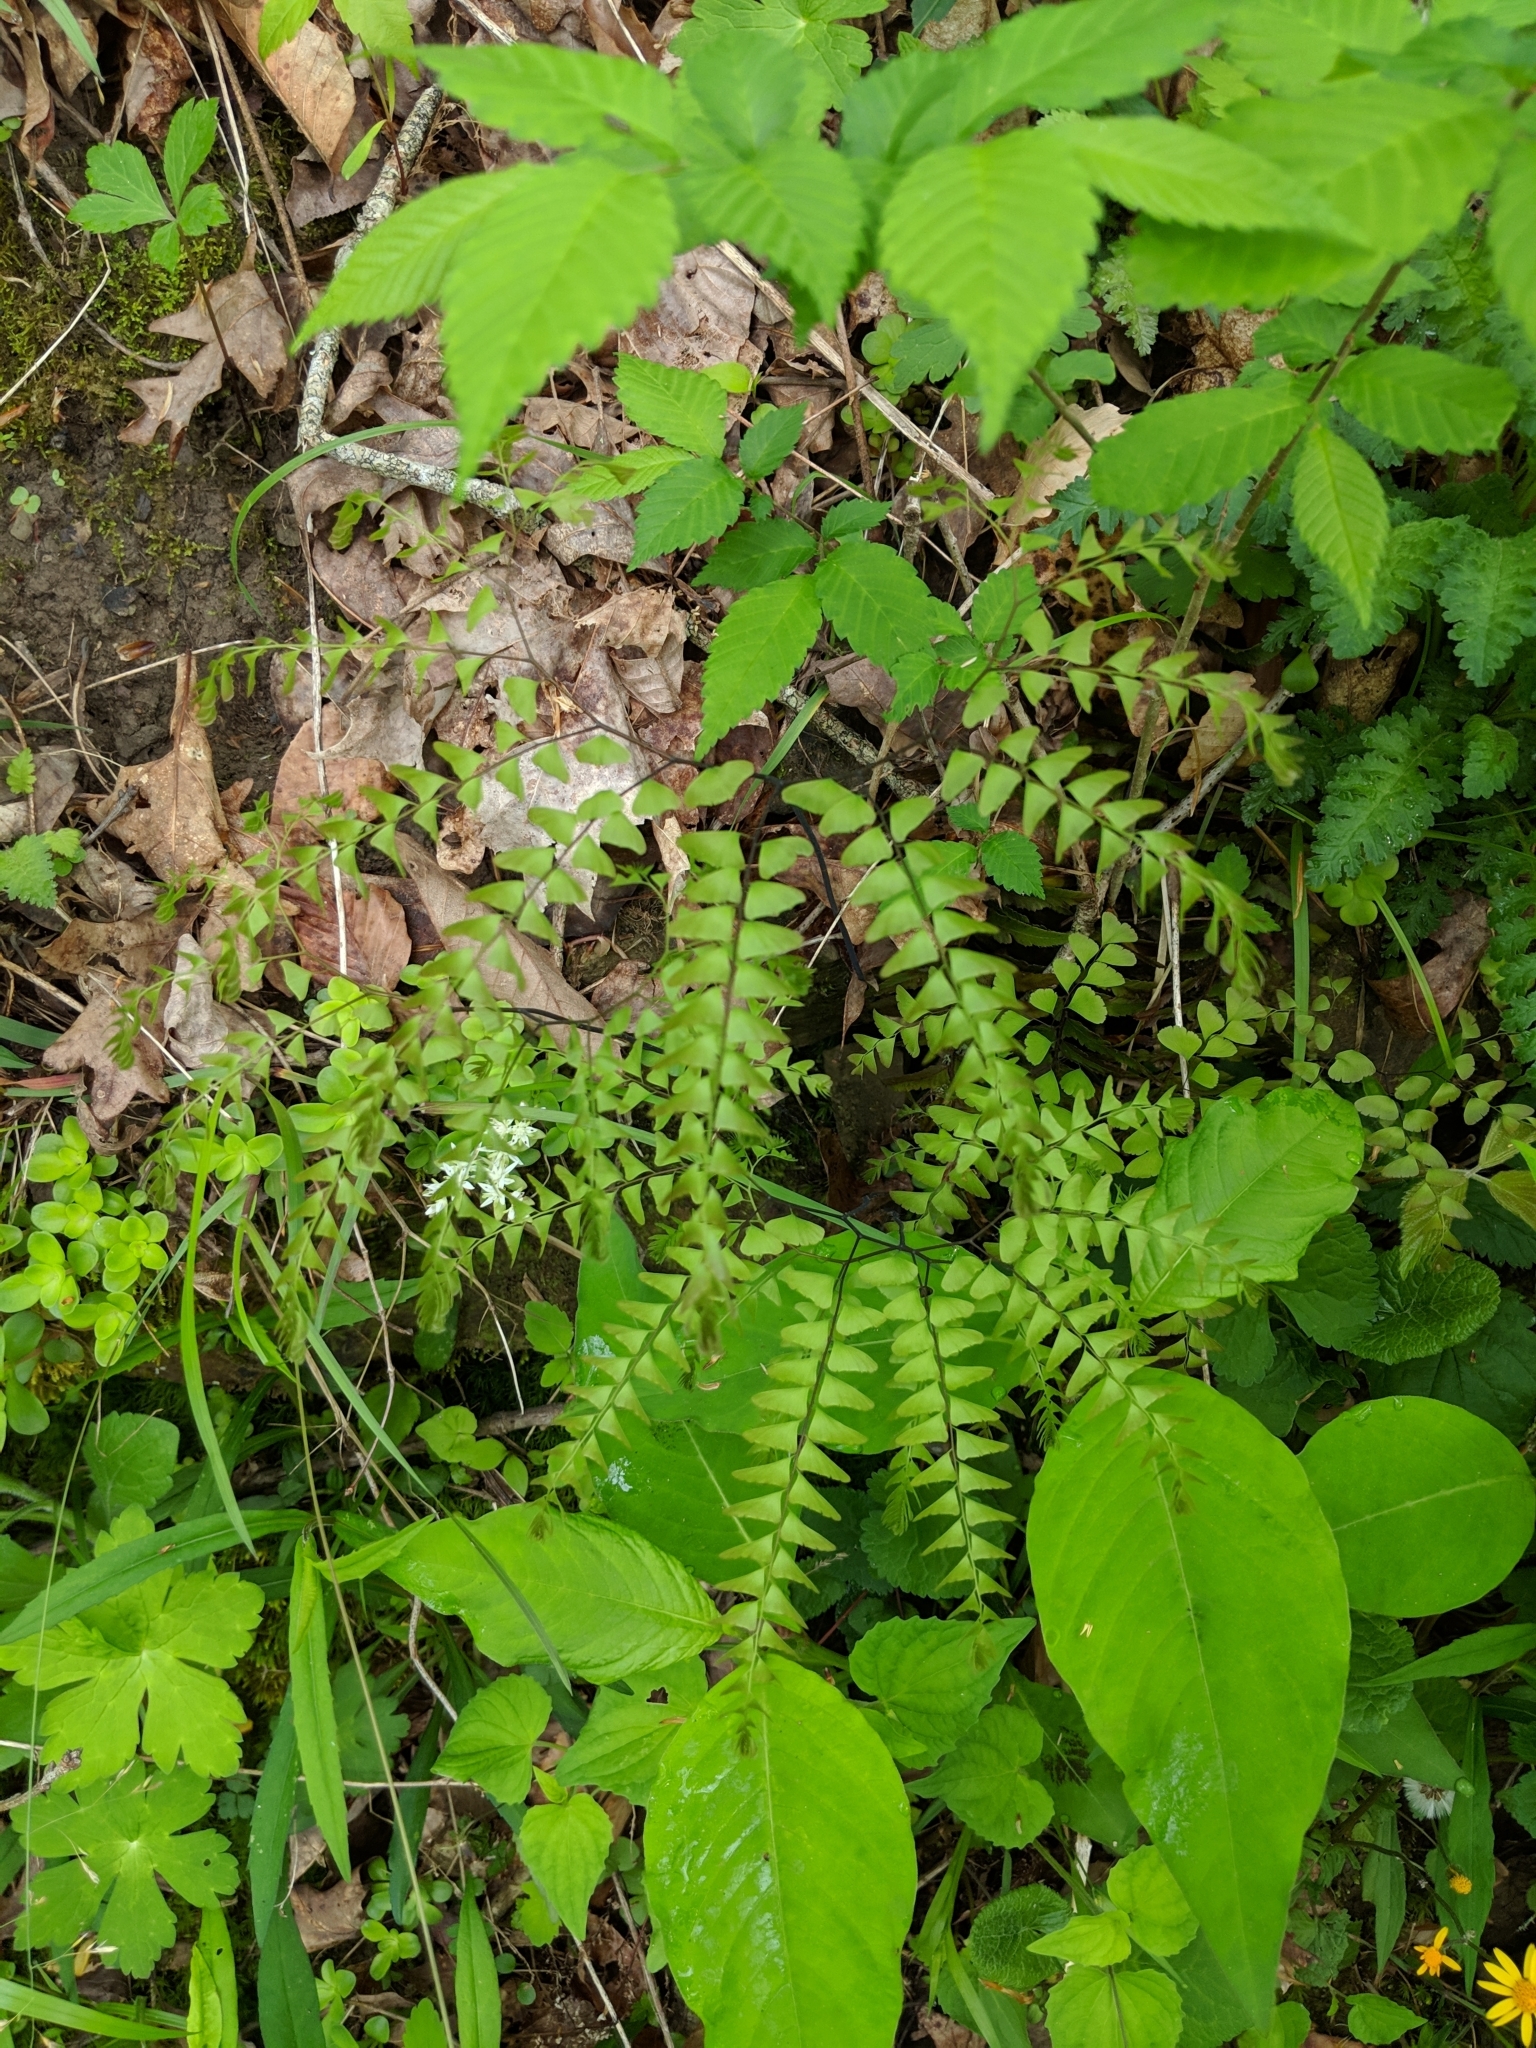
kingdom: Plantae
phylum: Tracheophyta
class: Polypodiopsida
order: Polypodiales
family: Pteridaceae
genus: Adiantum
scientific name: Adiantum pedatum
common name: Five-finger fern
